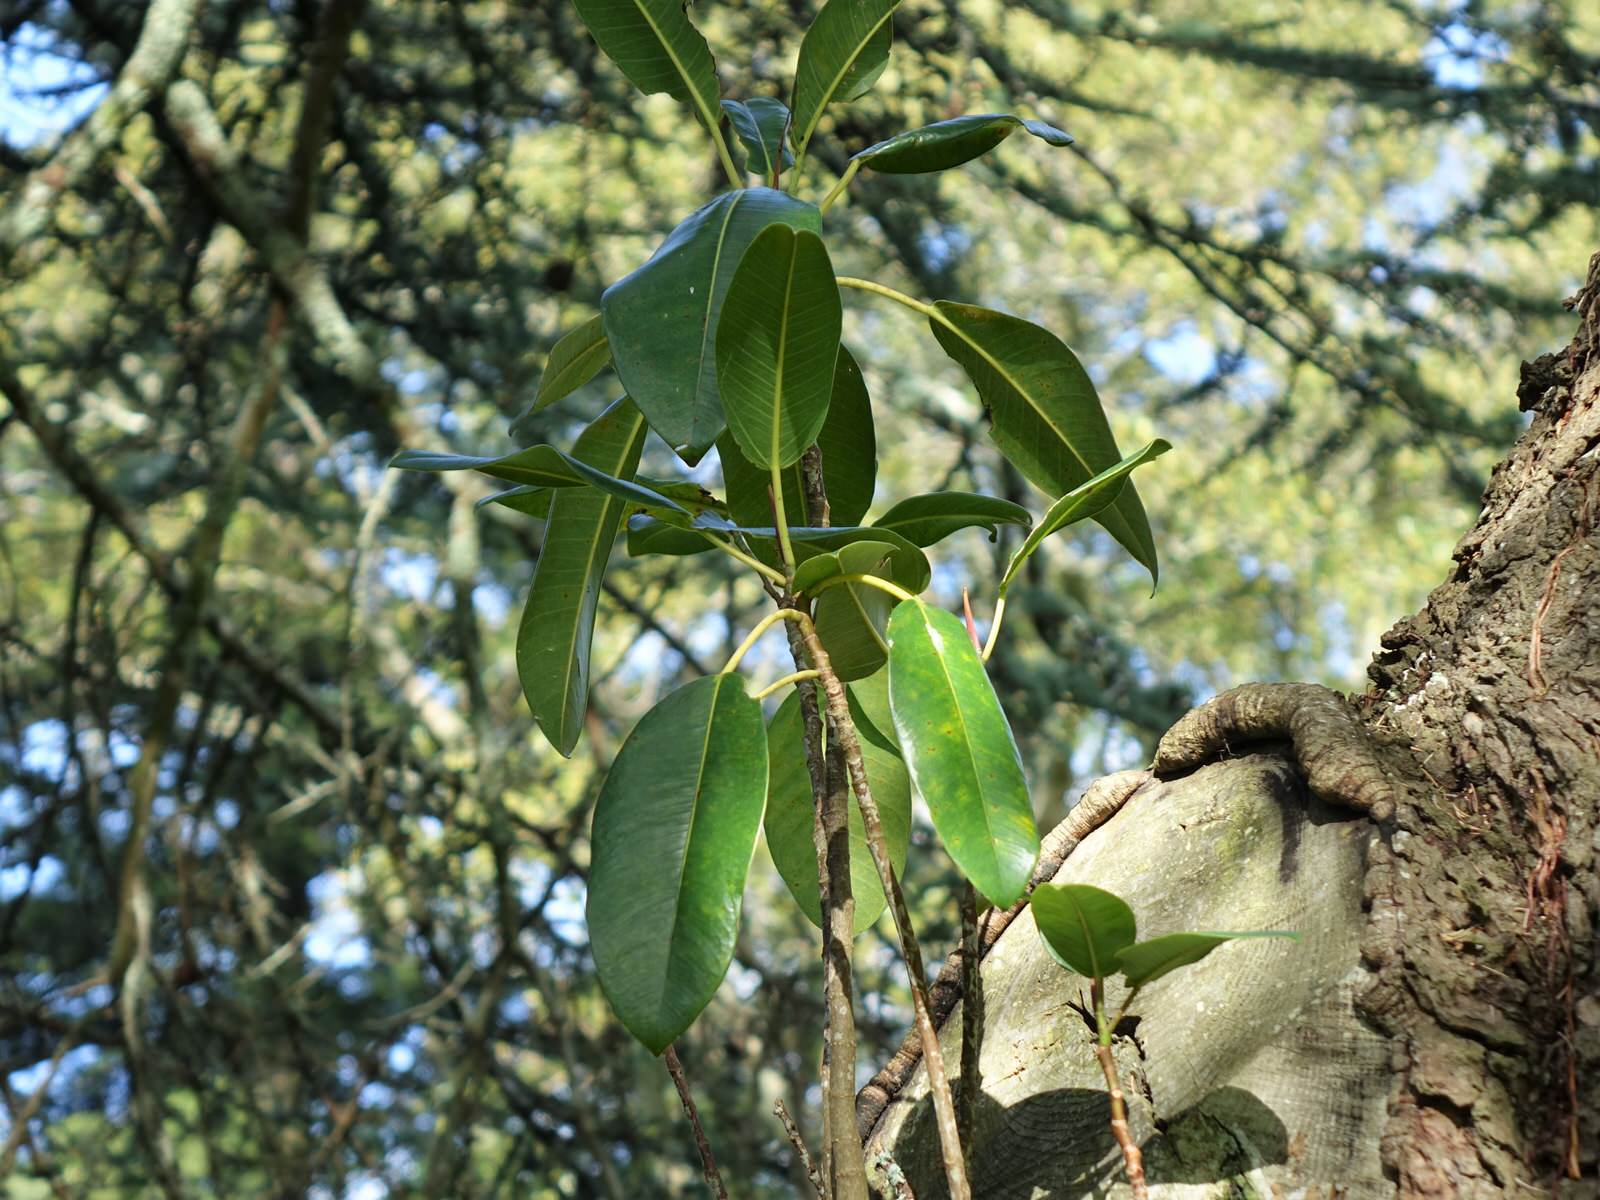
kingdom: Plantae
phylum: Tracheophyta
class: Magnoliopsida
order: Rosales
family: Moraceae
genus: Ficus
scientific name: Ficus macrophylla
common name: Moreton bay fig
